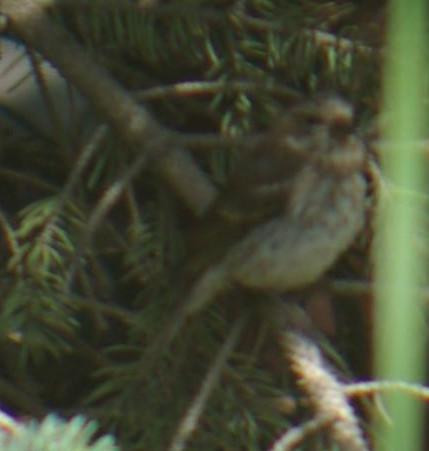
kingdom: Animalia
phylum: Chordata
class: Aves
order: Passeriformes
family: Fringillidae
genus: Haemorhous
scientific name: Haemorhous purpureus
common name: Purple finch
